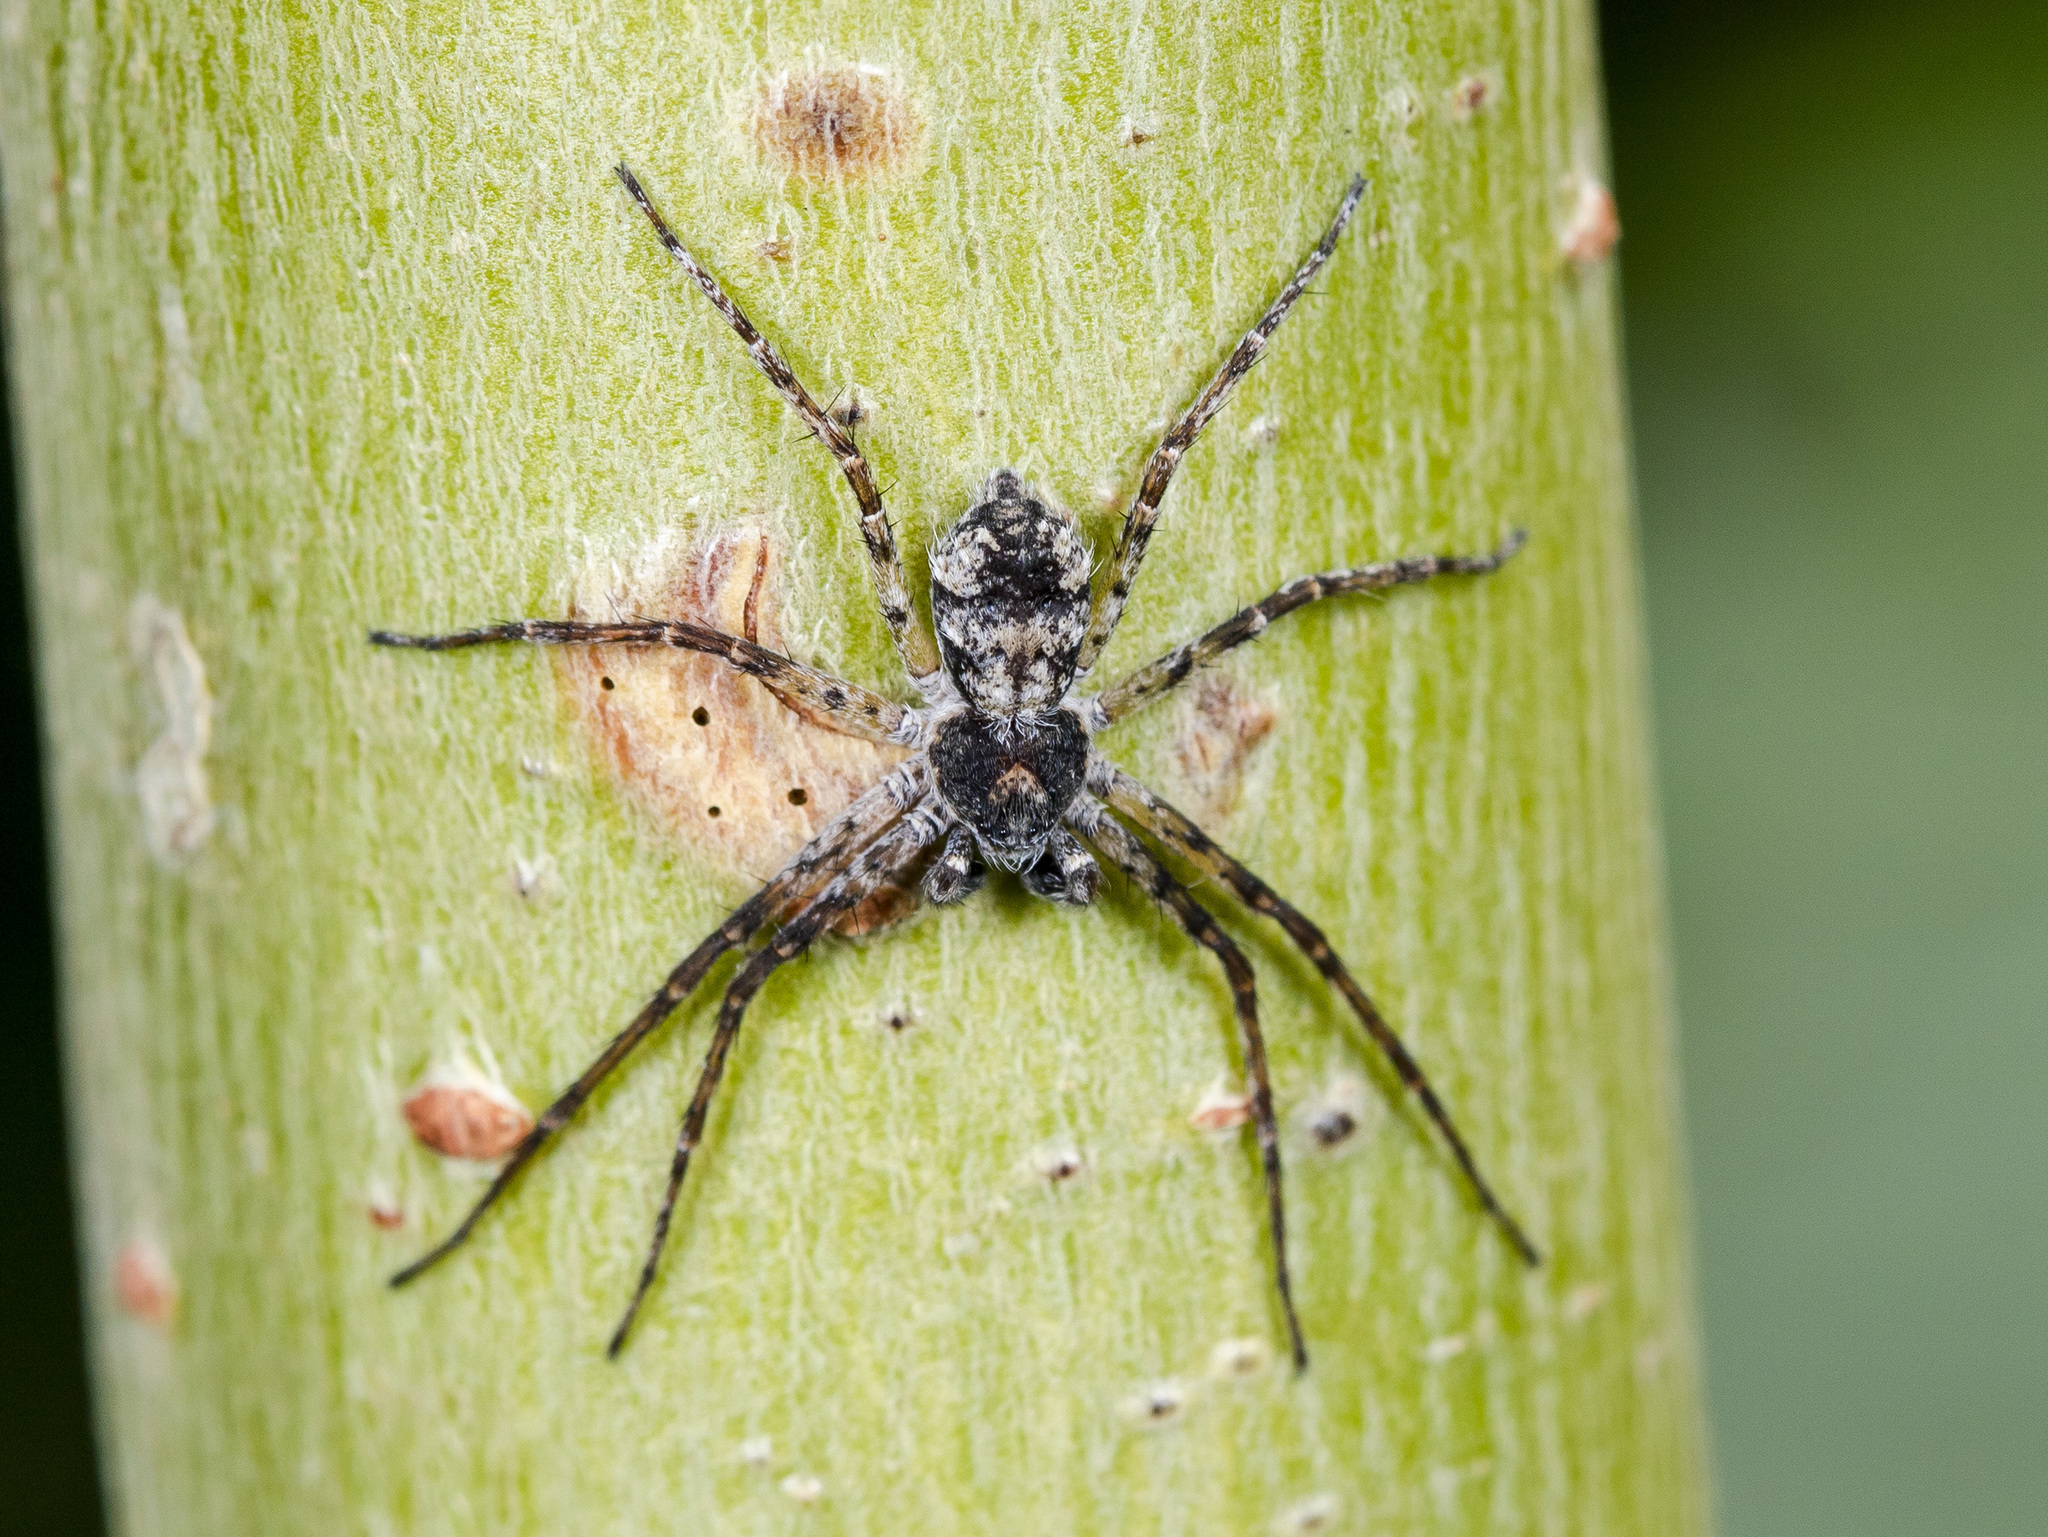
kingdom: Animalia
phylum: Arthropoda
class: Arachnida
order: Araneae
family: Philodromidae
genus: Philodromus
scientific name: Philodromus emarginatus
